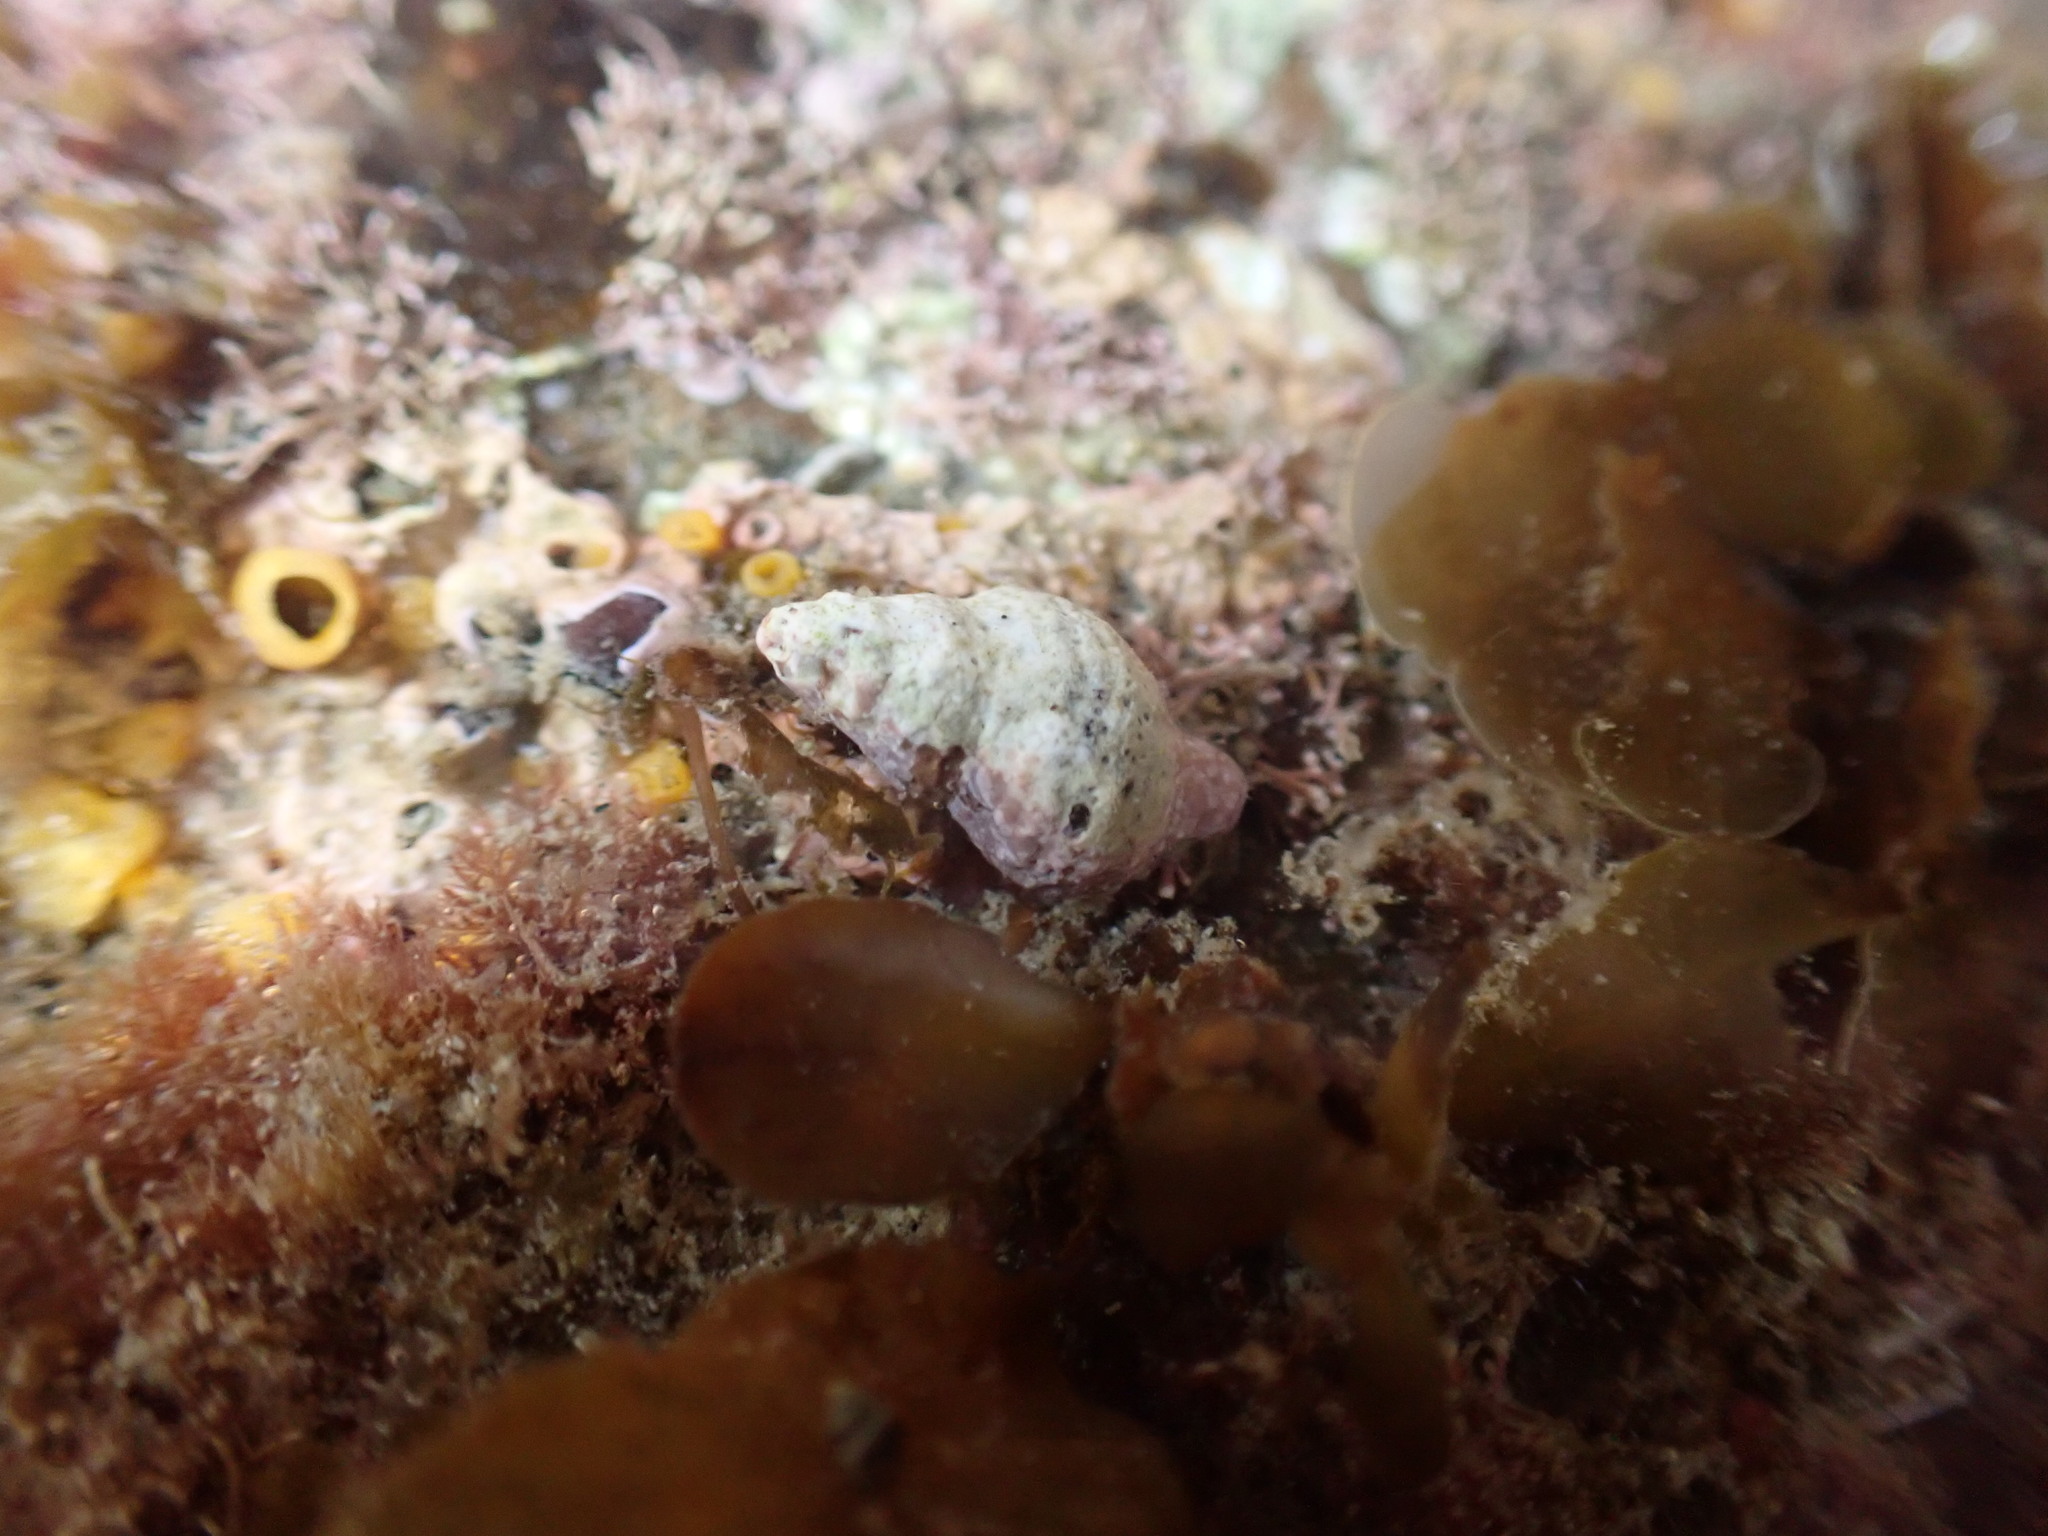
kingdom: Animalia
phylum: Mollusca
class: Gastropoda
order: Neogastropoda
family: Fasciolariidae
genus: Taron
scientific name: Taron dubius
